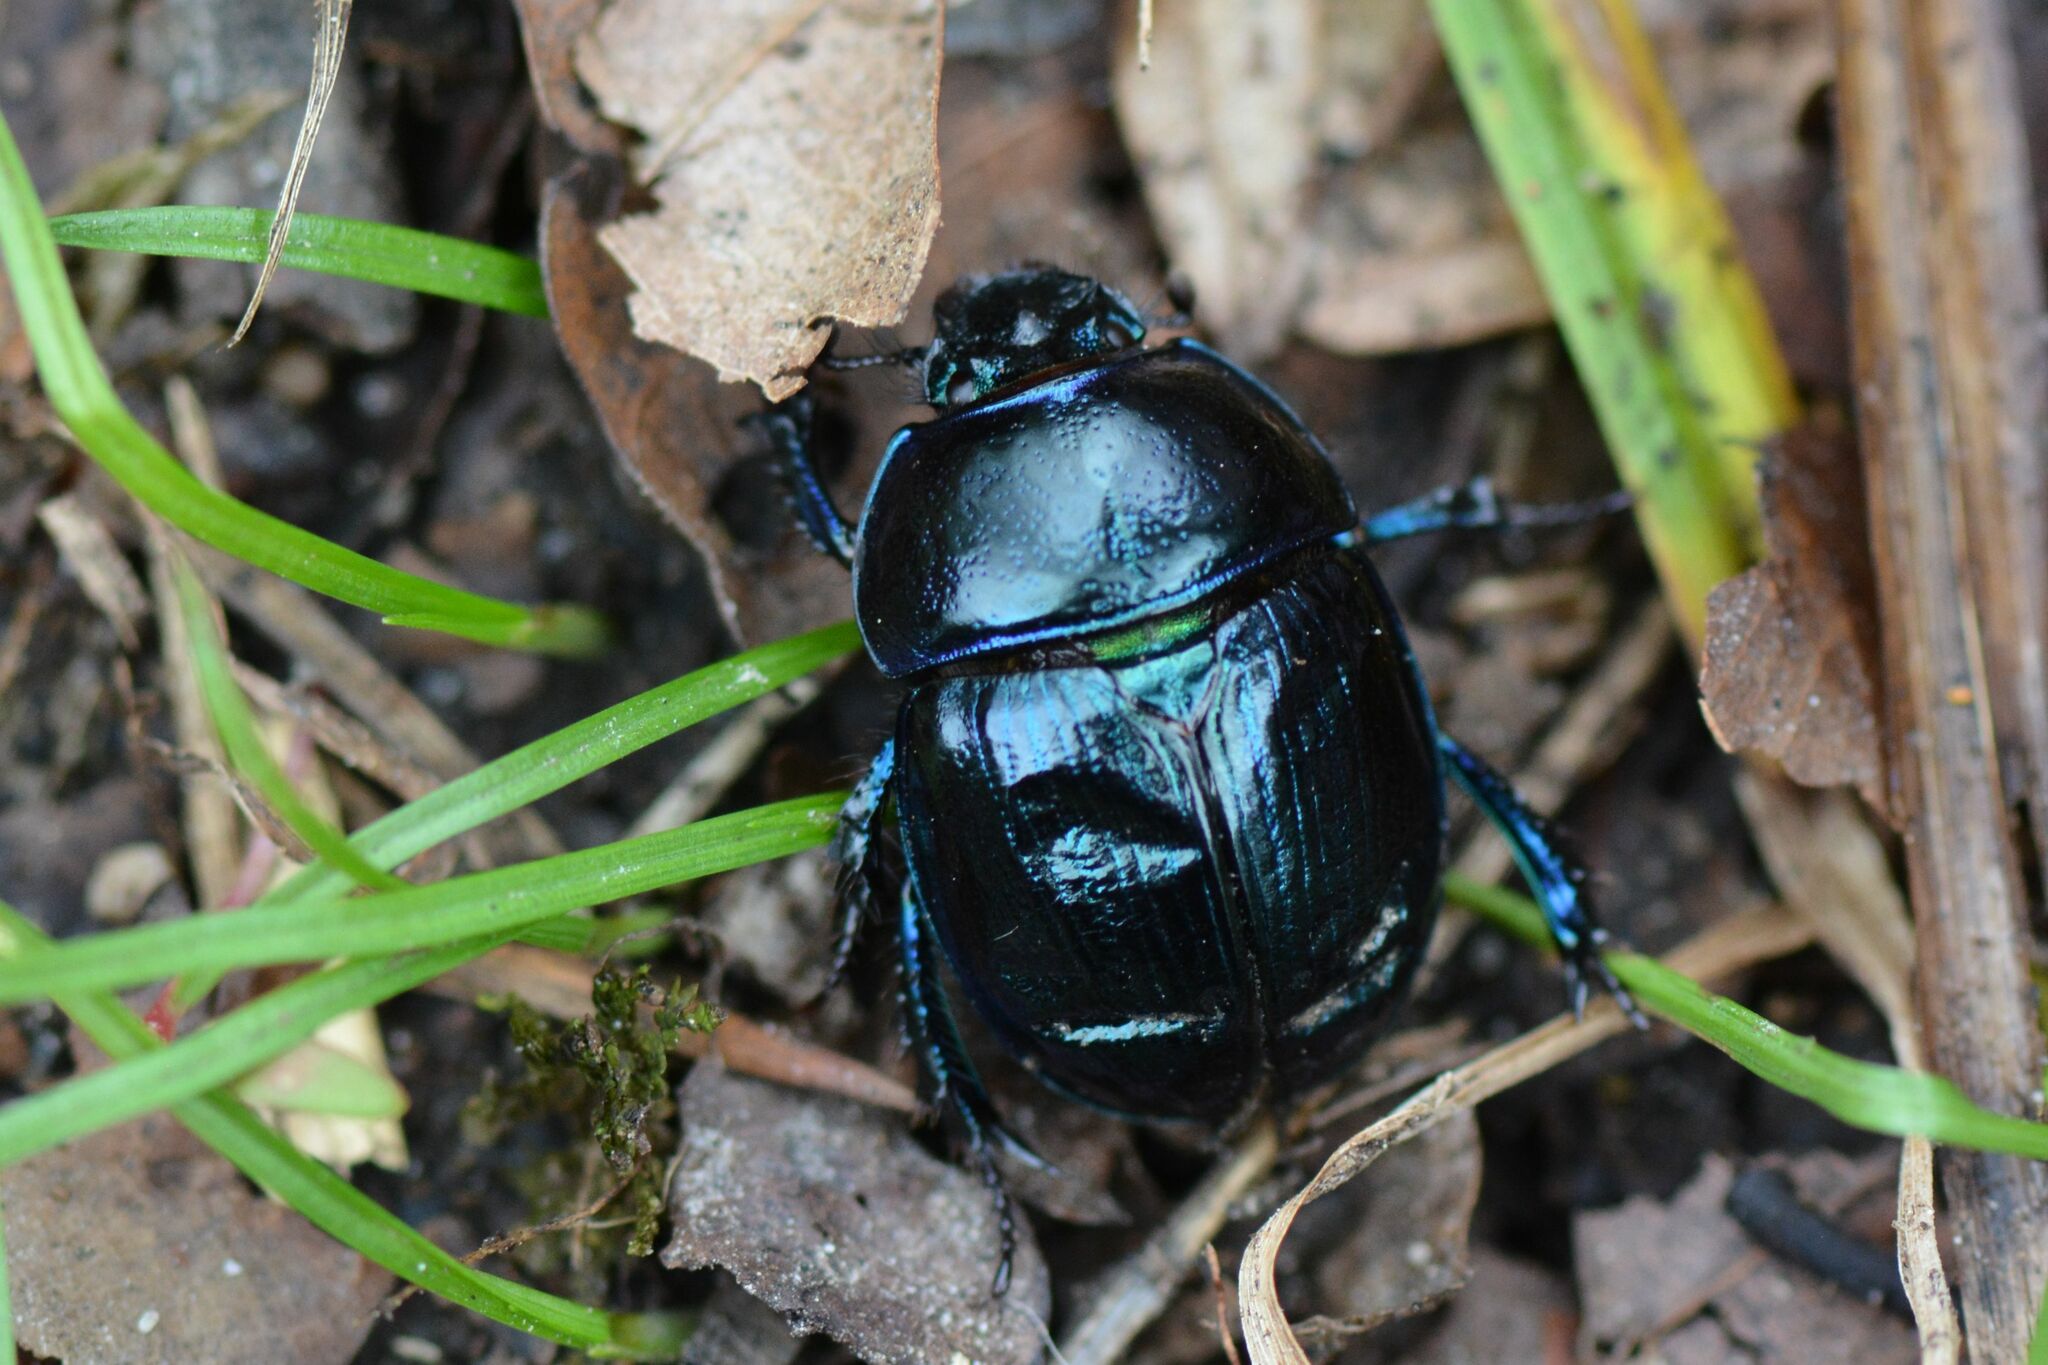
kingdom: Animalia
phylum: Arthropoda
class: Insecta
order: Coleoptera
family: Geotrupidae
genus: Anoplotrupes
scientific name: Anoplotrupes stercorosus
